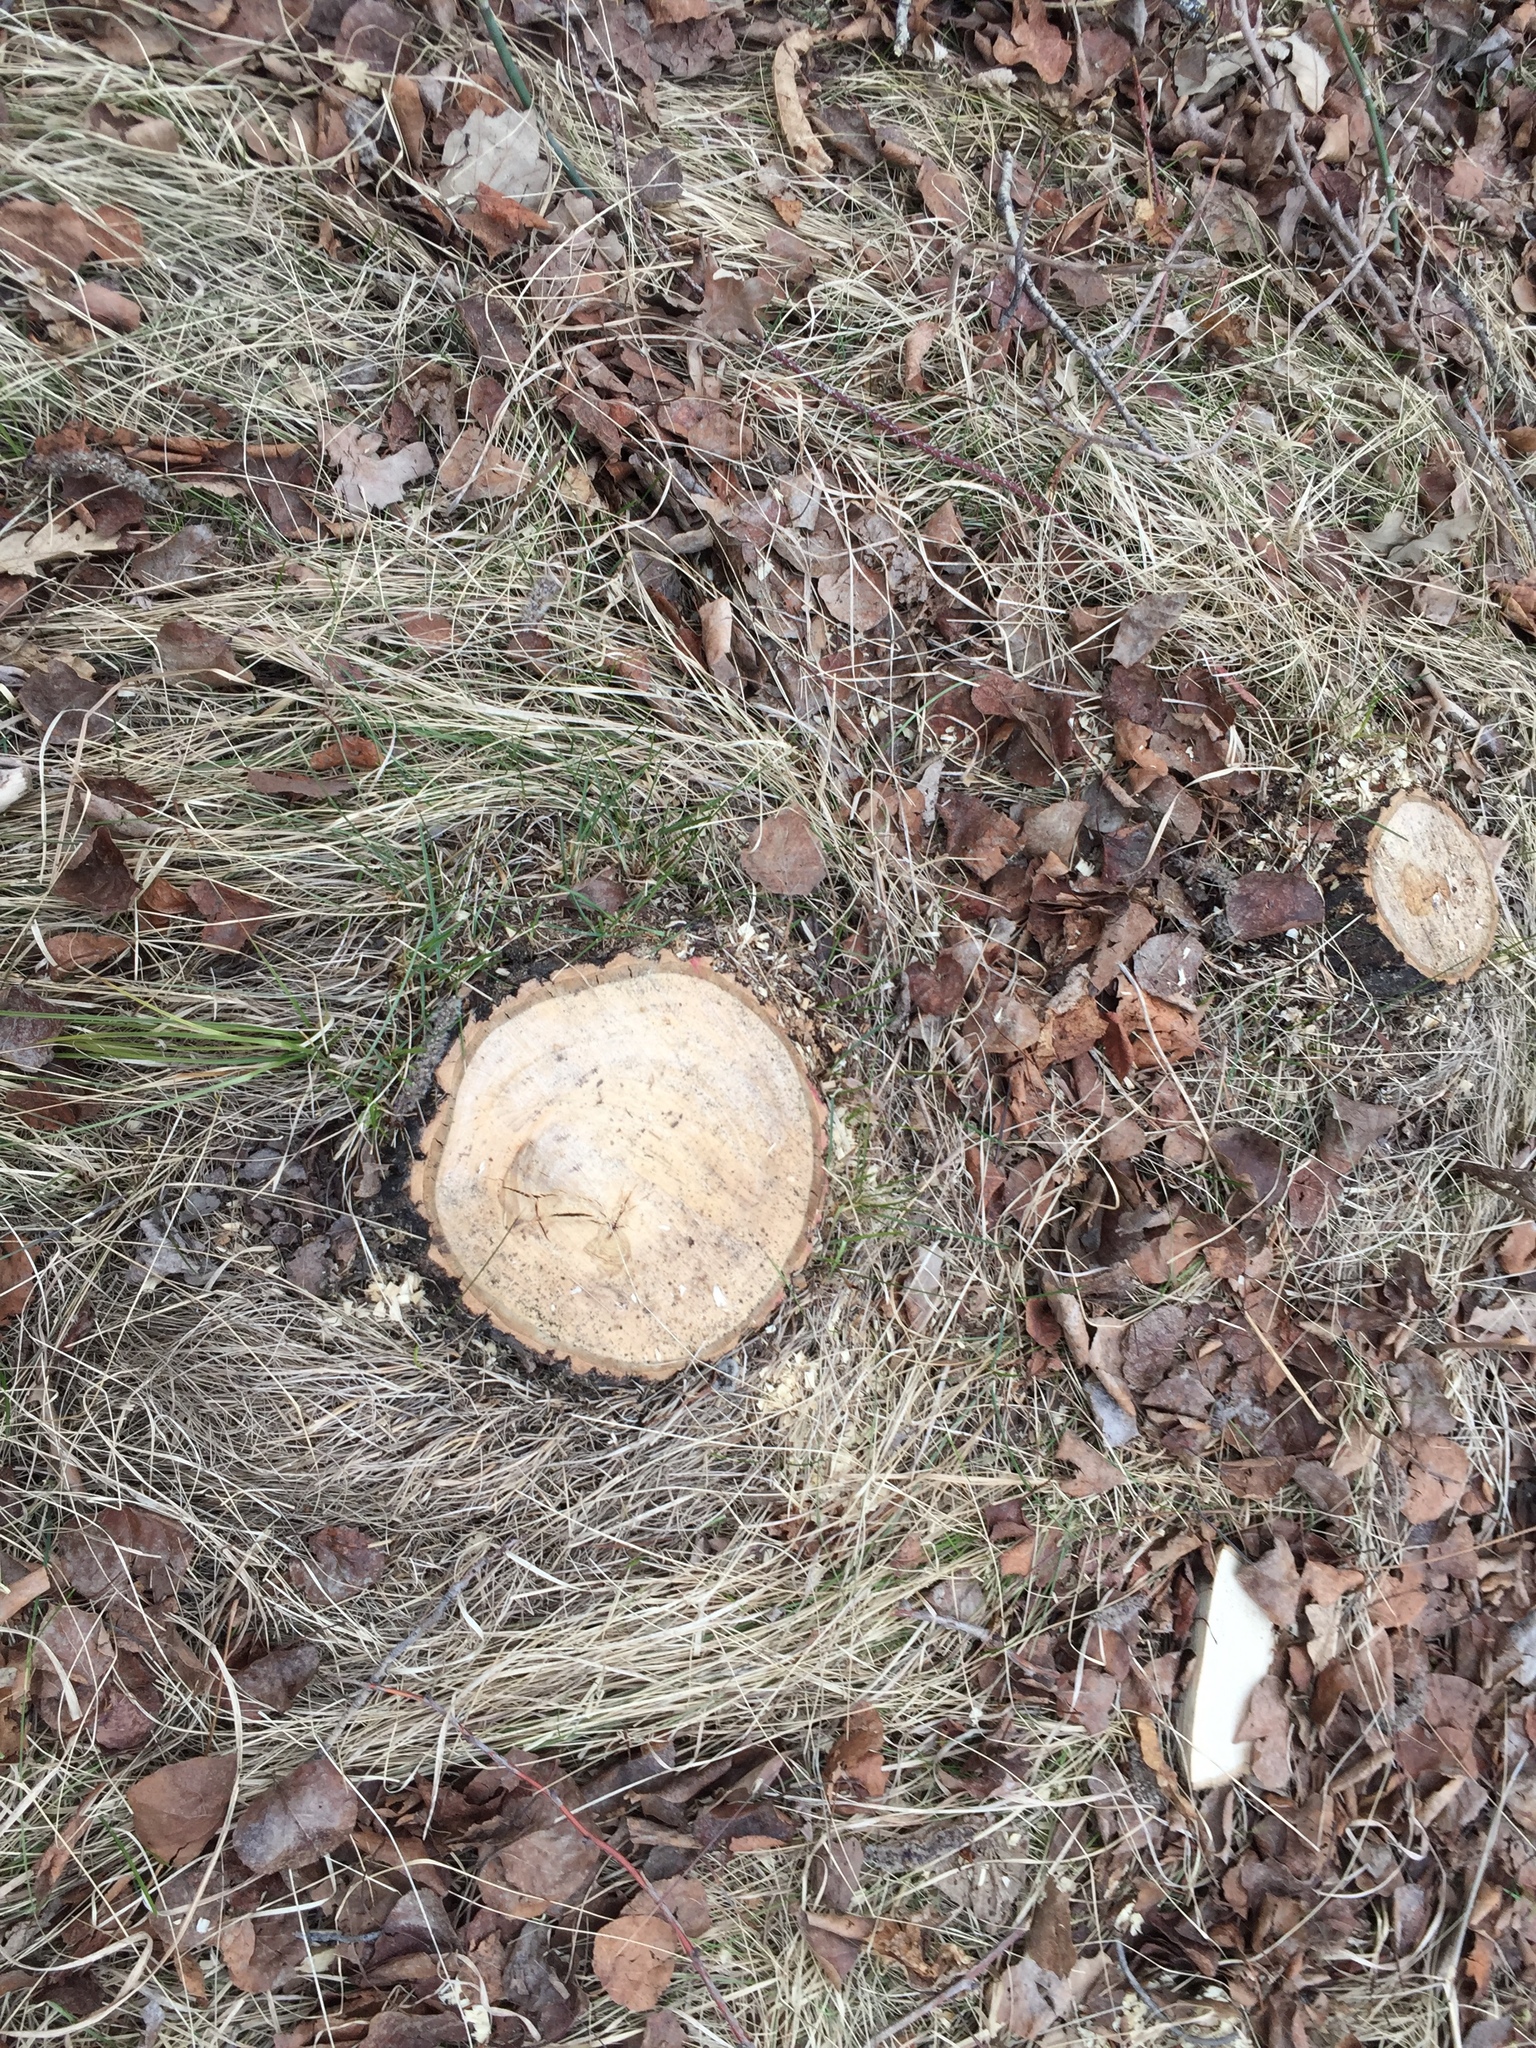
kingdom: Plantae
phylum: Tracheophyta
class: Magnoliopsida
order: Fagales
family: Fagaceae
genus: Quercus
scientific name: Quercus macrocarpa
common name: Bur oak
